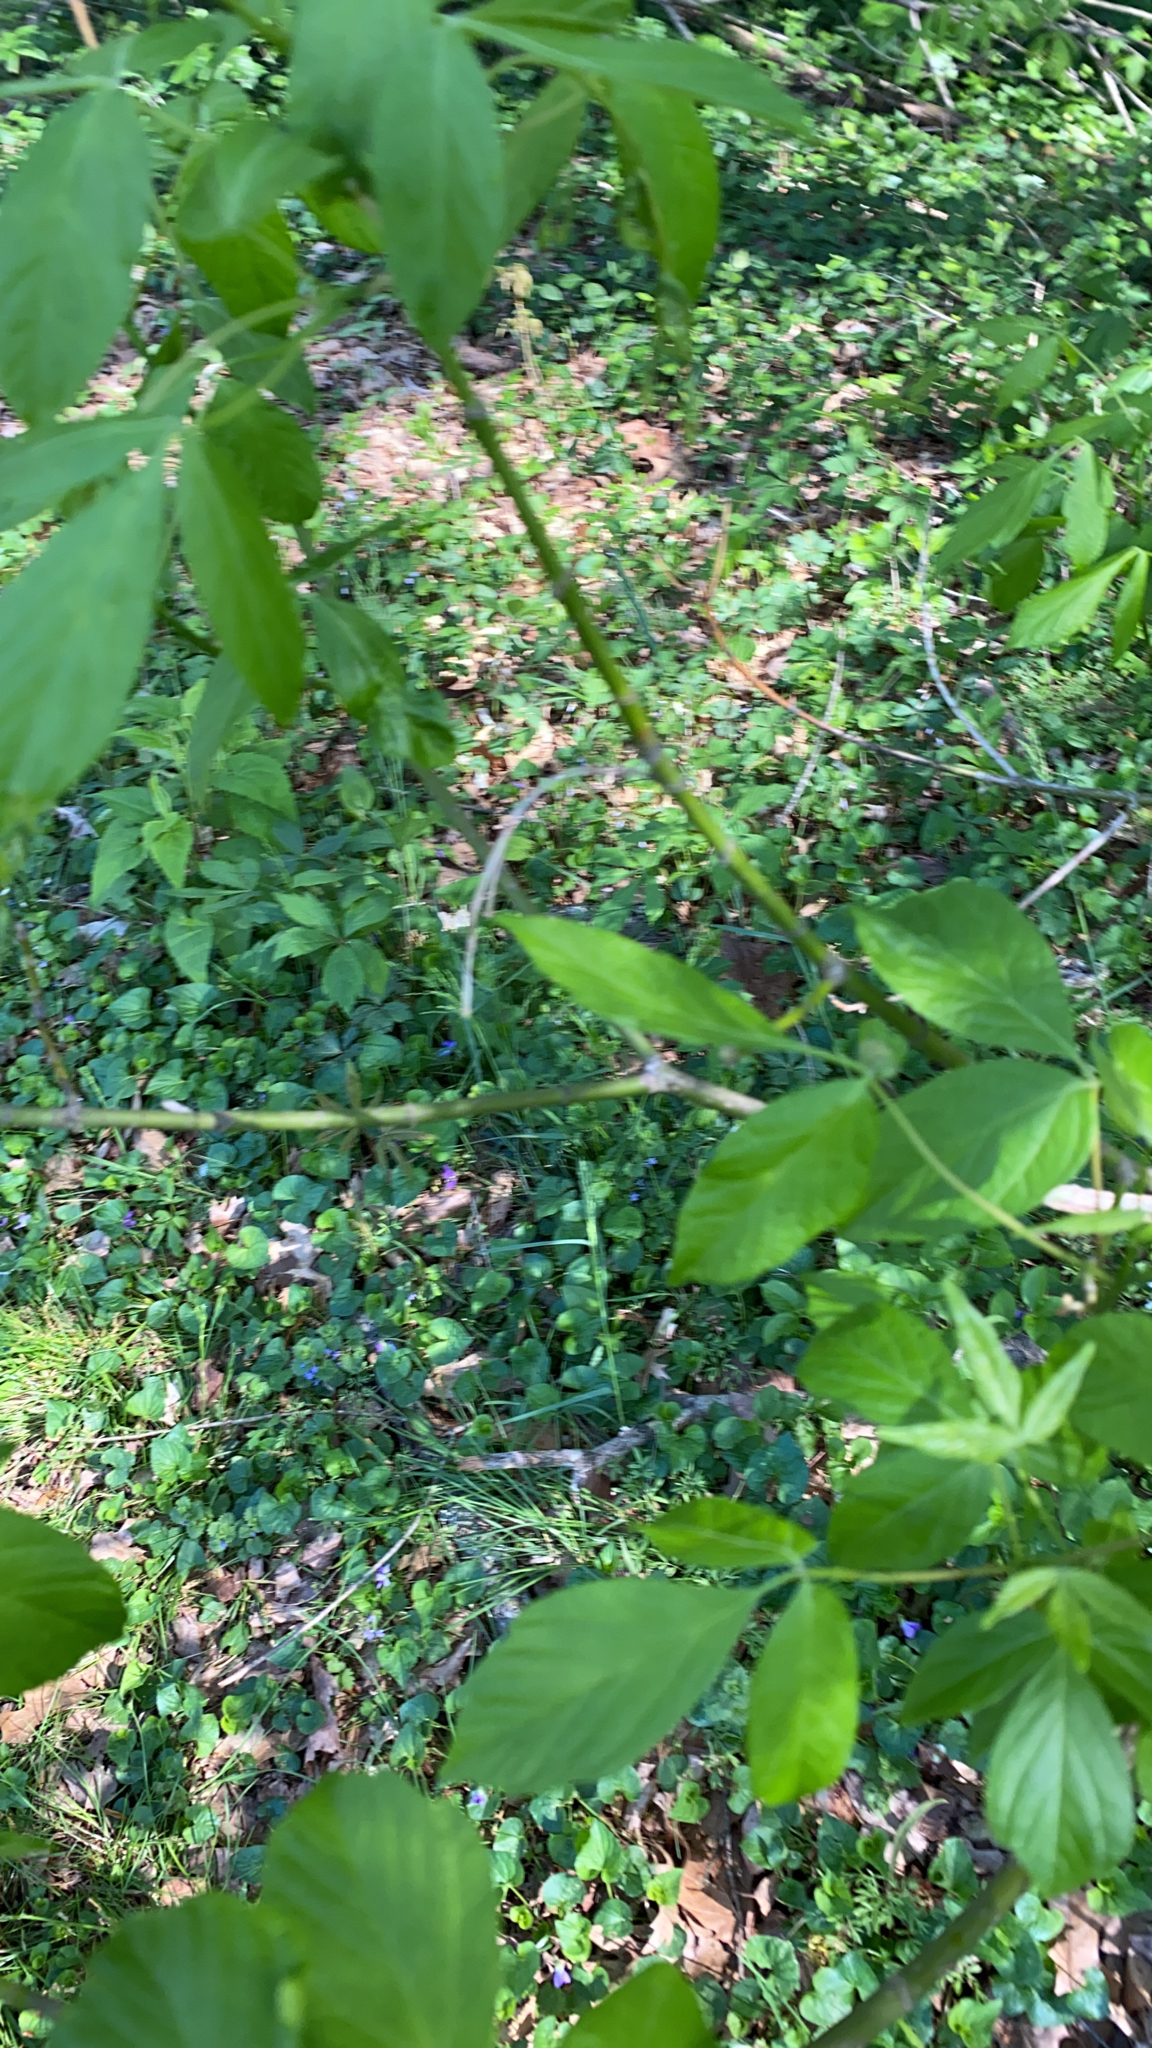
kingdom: Plantae
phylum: Tracheophyta
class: Magnoliopsida
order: Sapindales
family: Sapindaceae
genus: Acer
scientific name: Acer negundo
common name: Ashleaf maple
